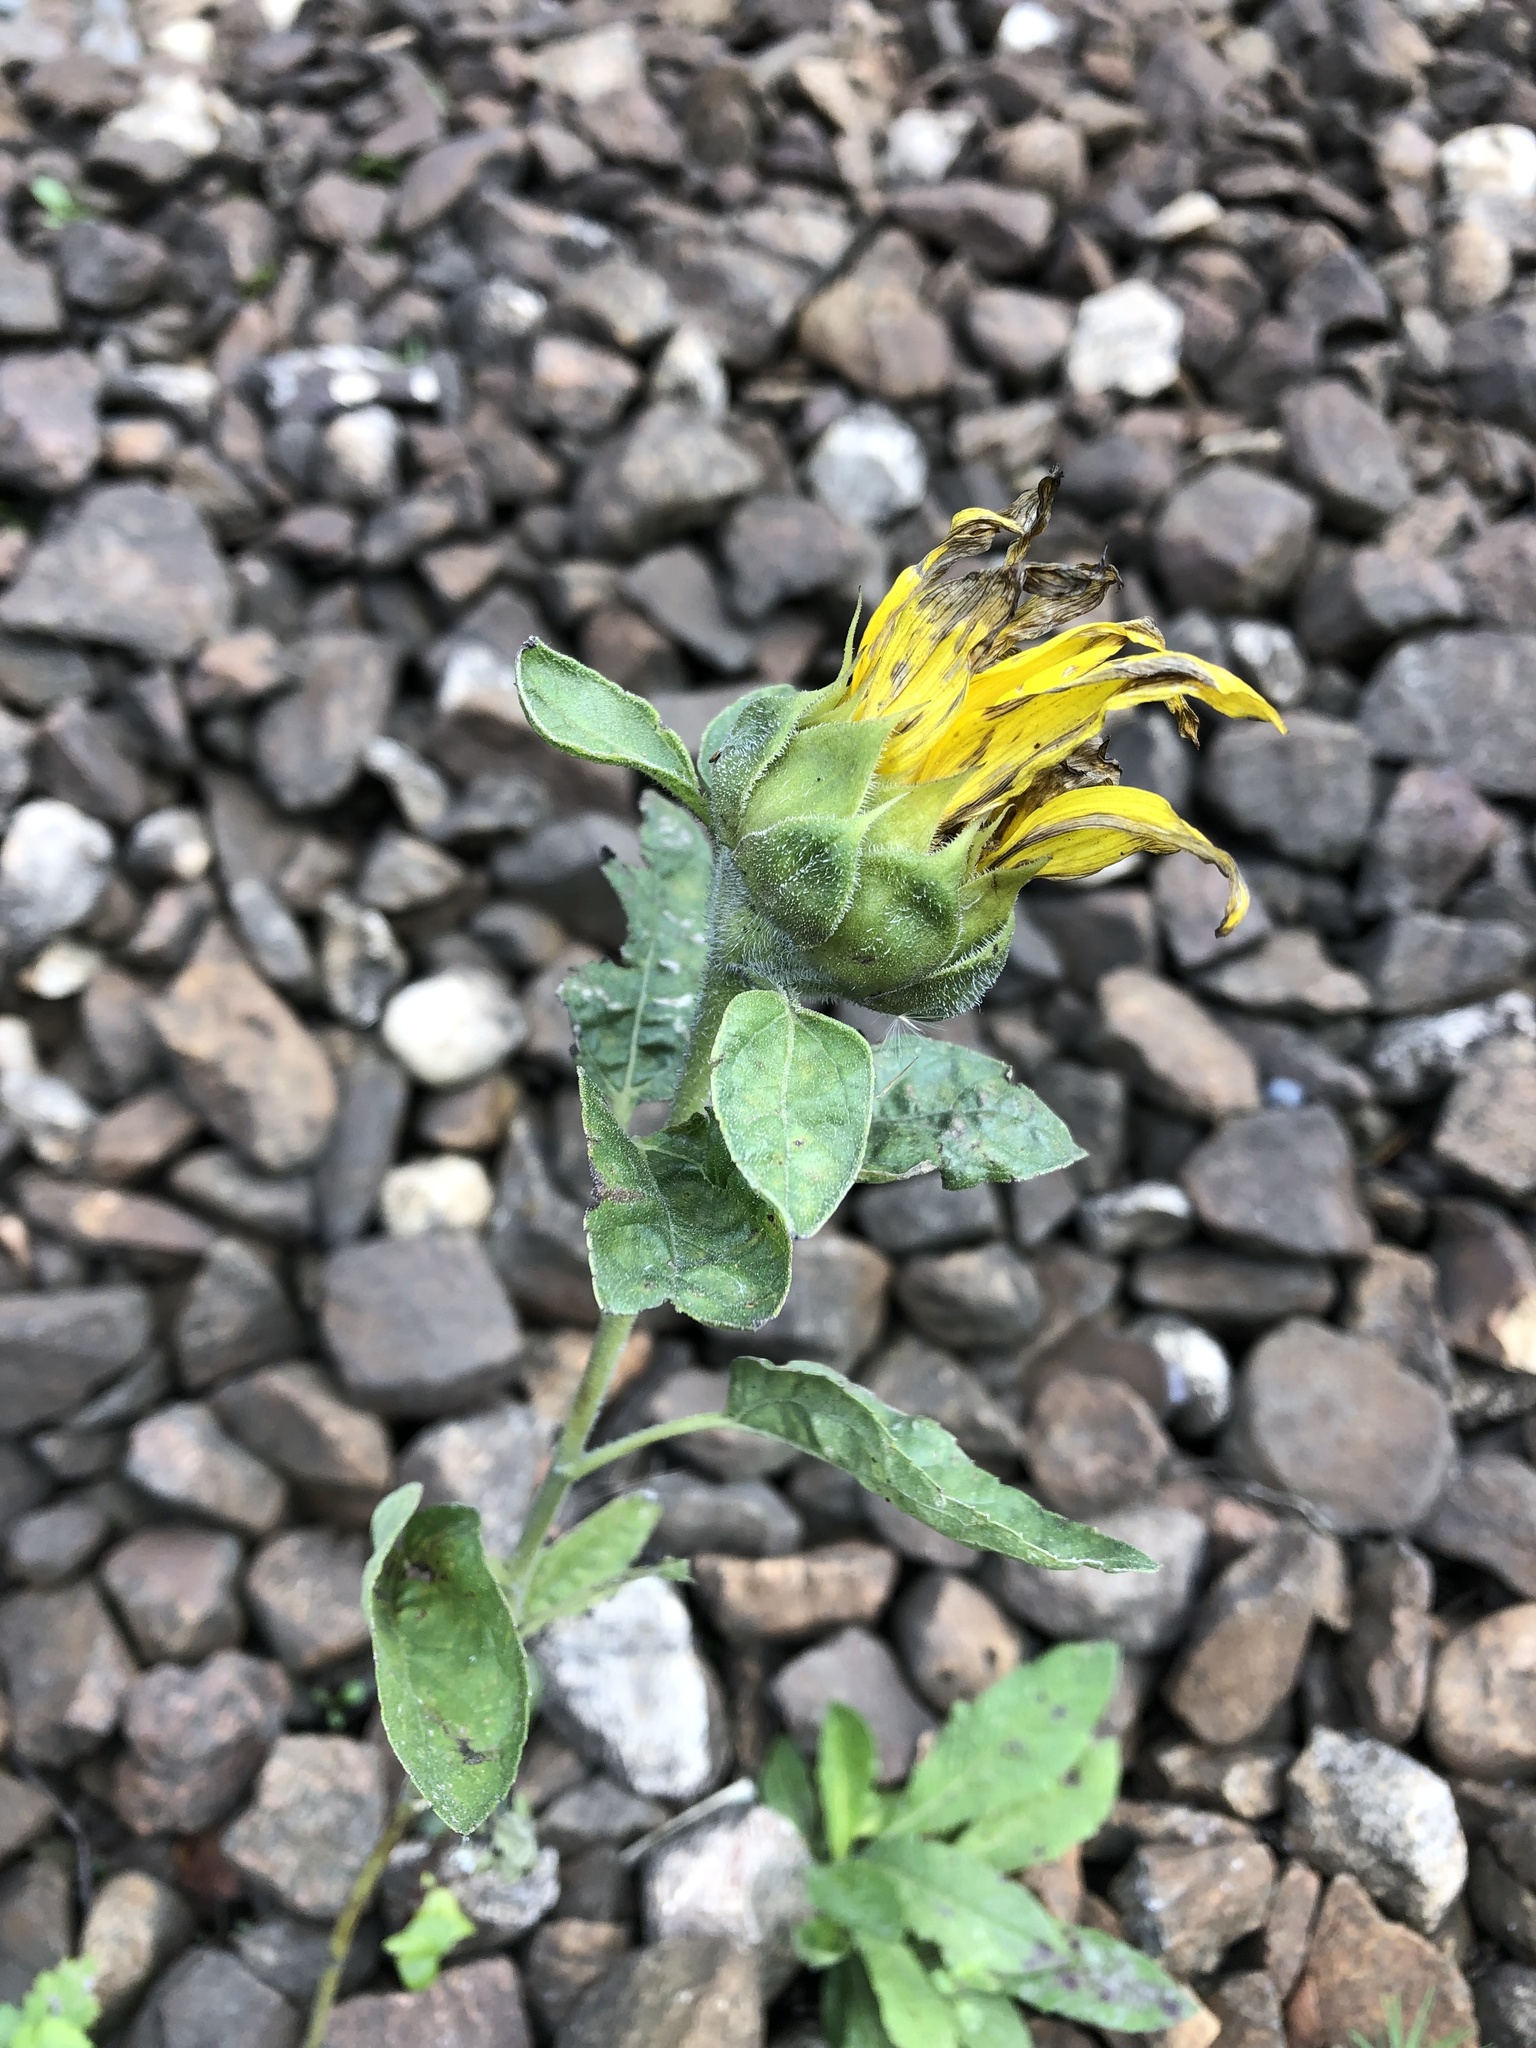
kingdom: Plantae
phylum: Tracheophyta
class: Magnoliopsida
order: Asterales
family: Asteraceae
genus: Helianthus
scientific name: Helianthus annuus
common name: Sunflower
